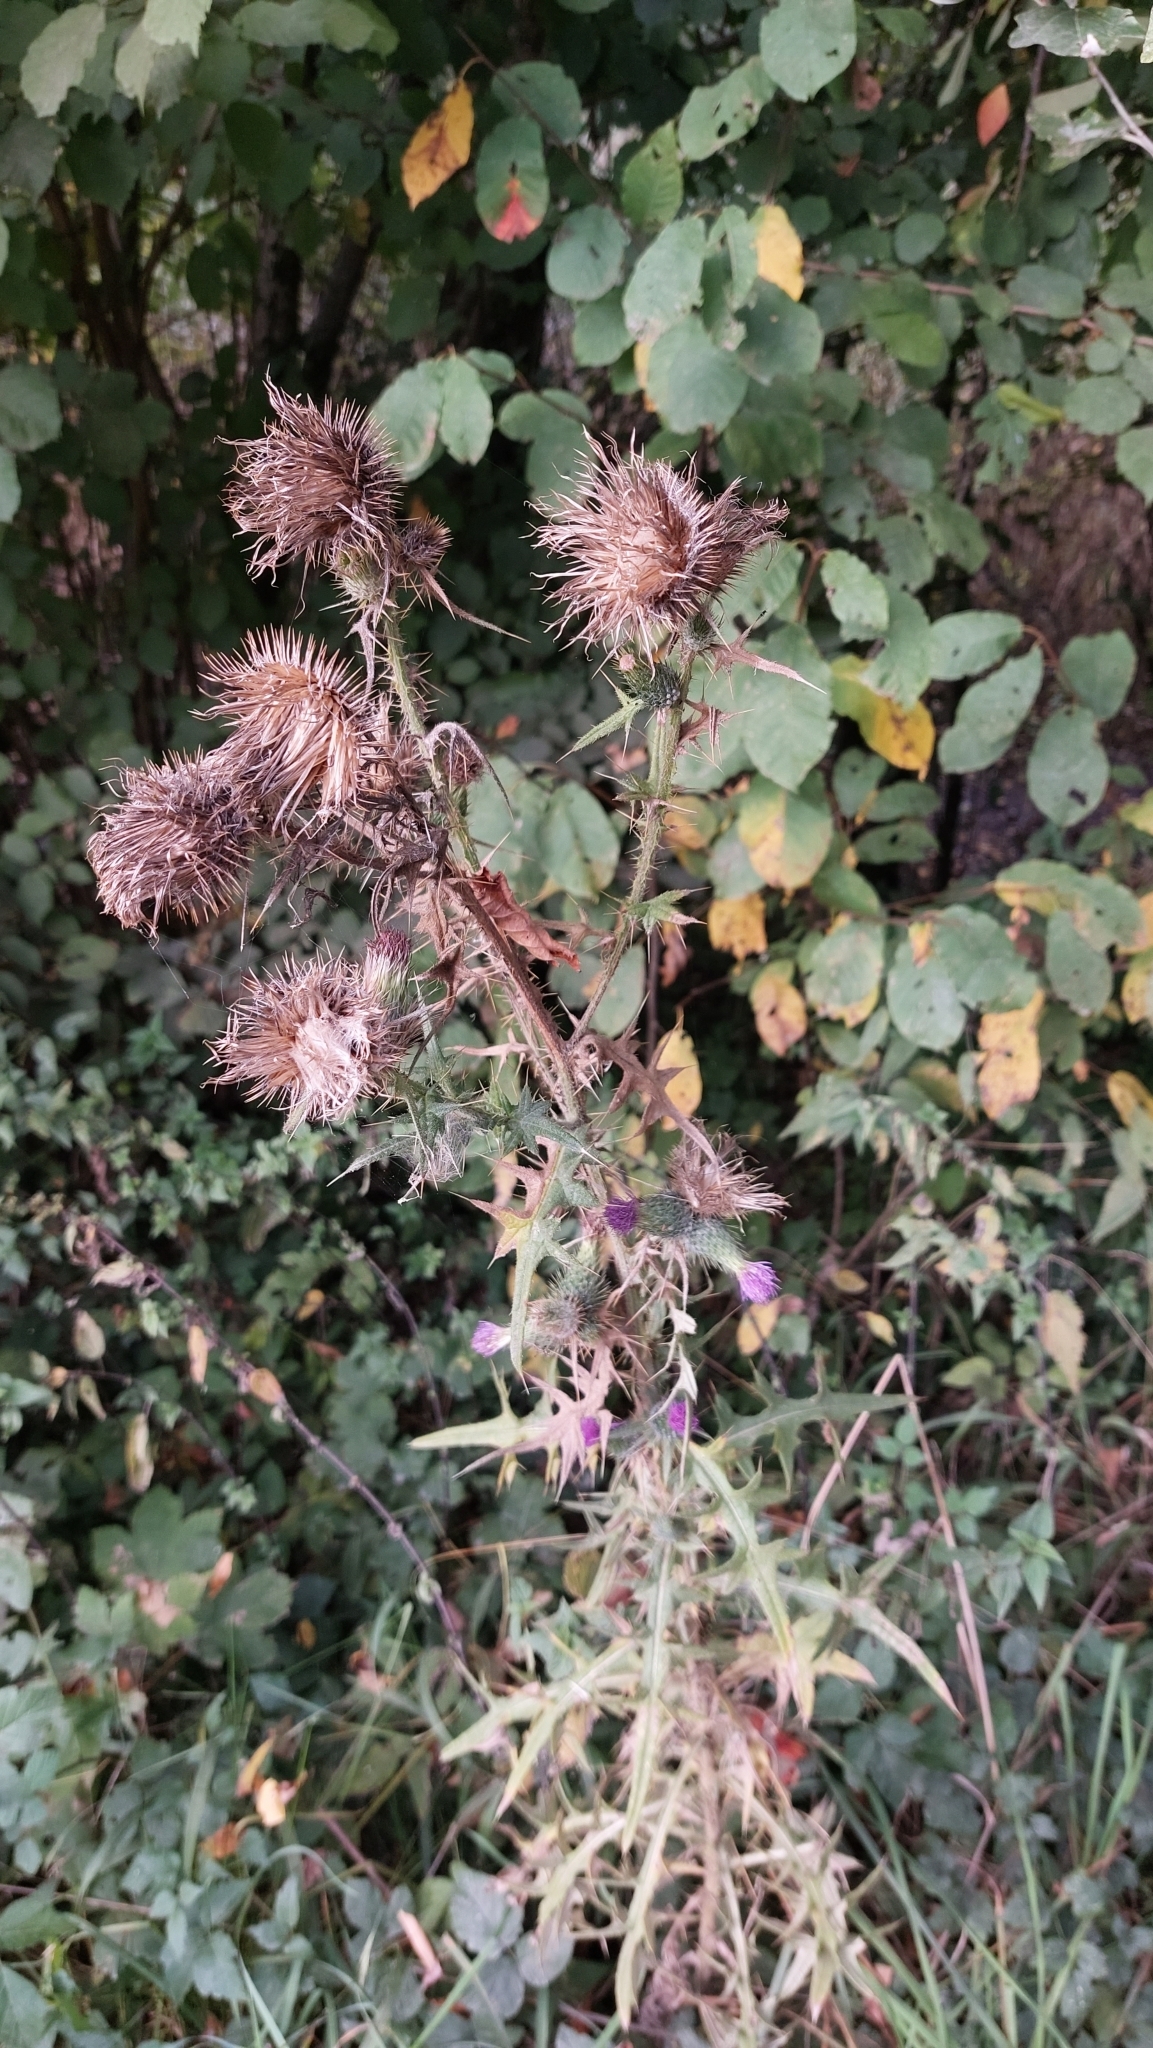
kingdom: Plantae
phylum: Tracheophyta
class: Magnoliopsida
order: Asterales
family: Asteraceae
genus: Cirsium
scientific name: Cirsium vulgare
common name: Bull thistle
